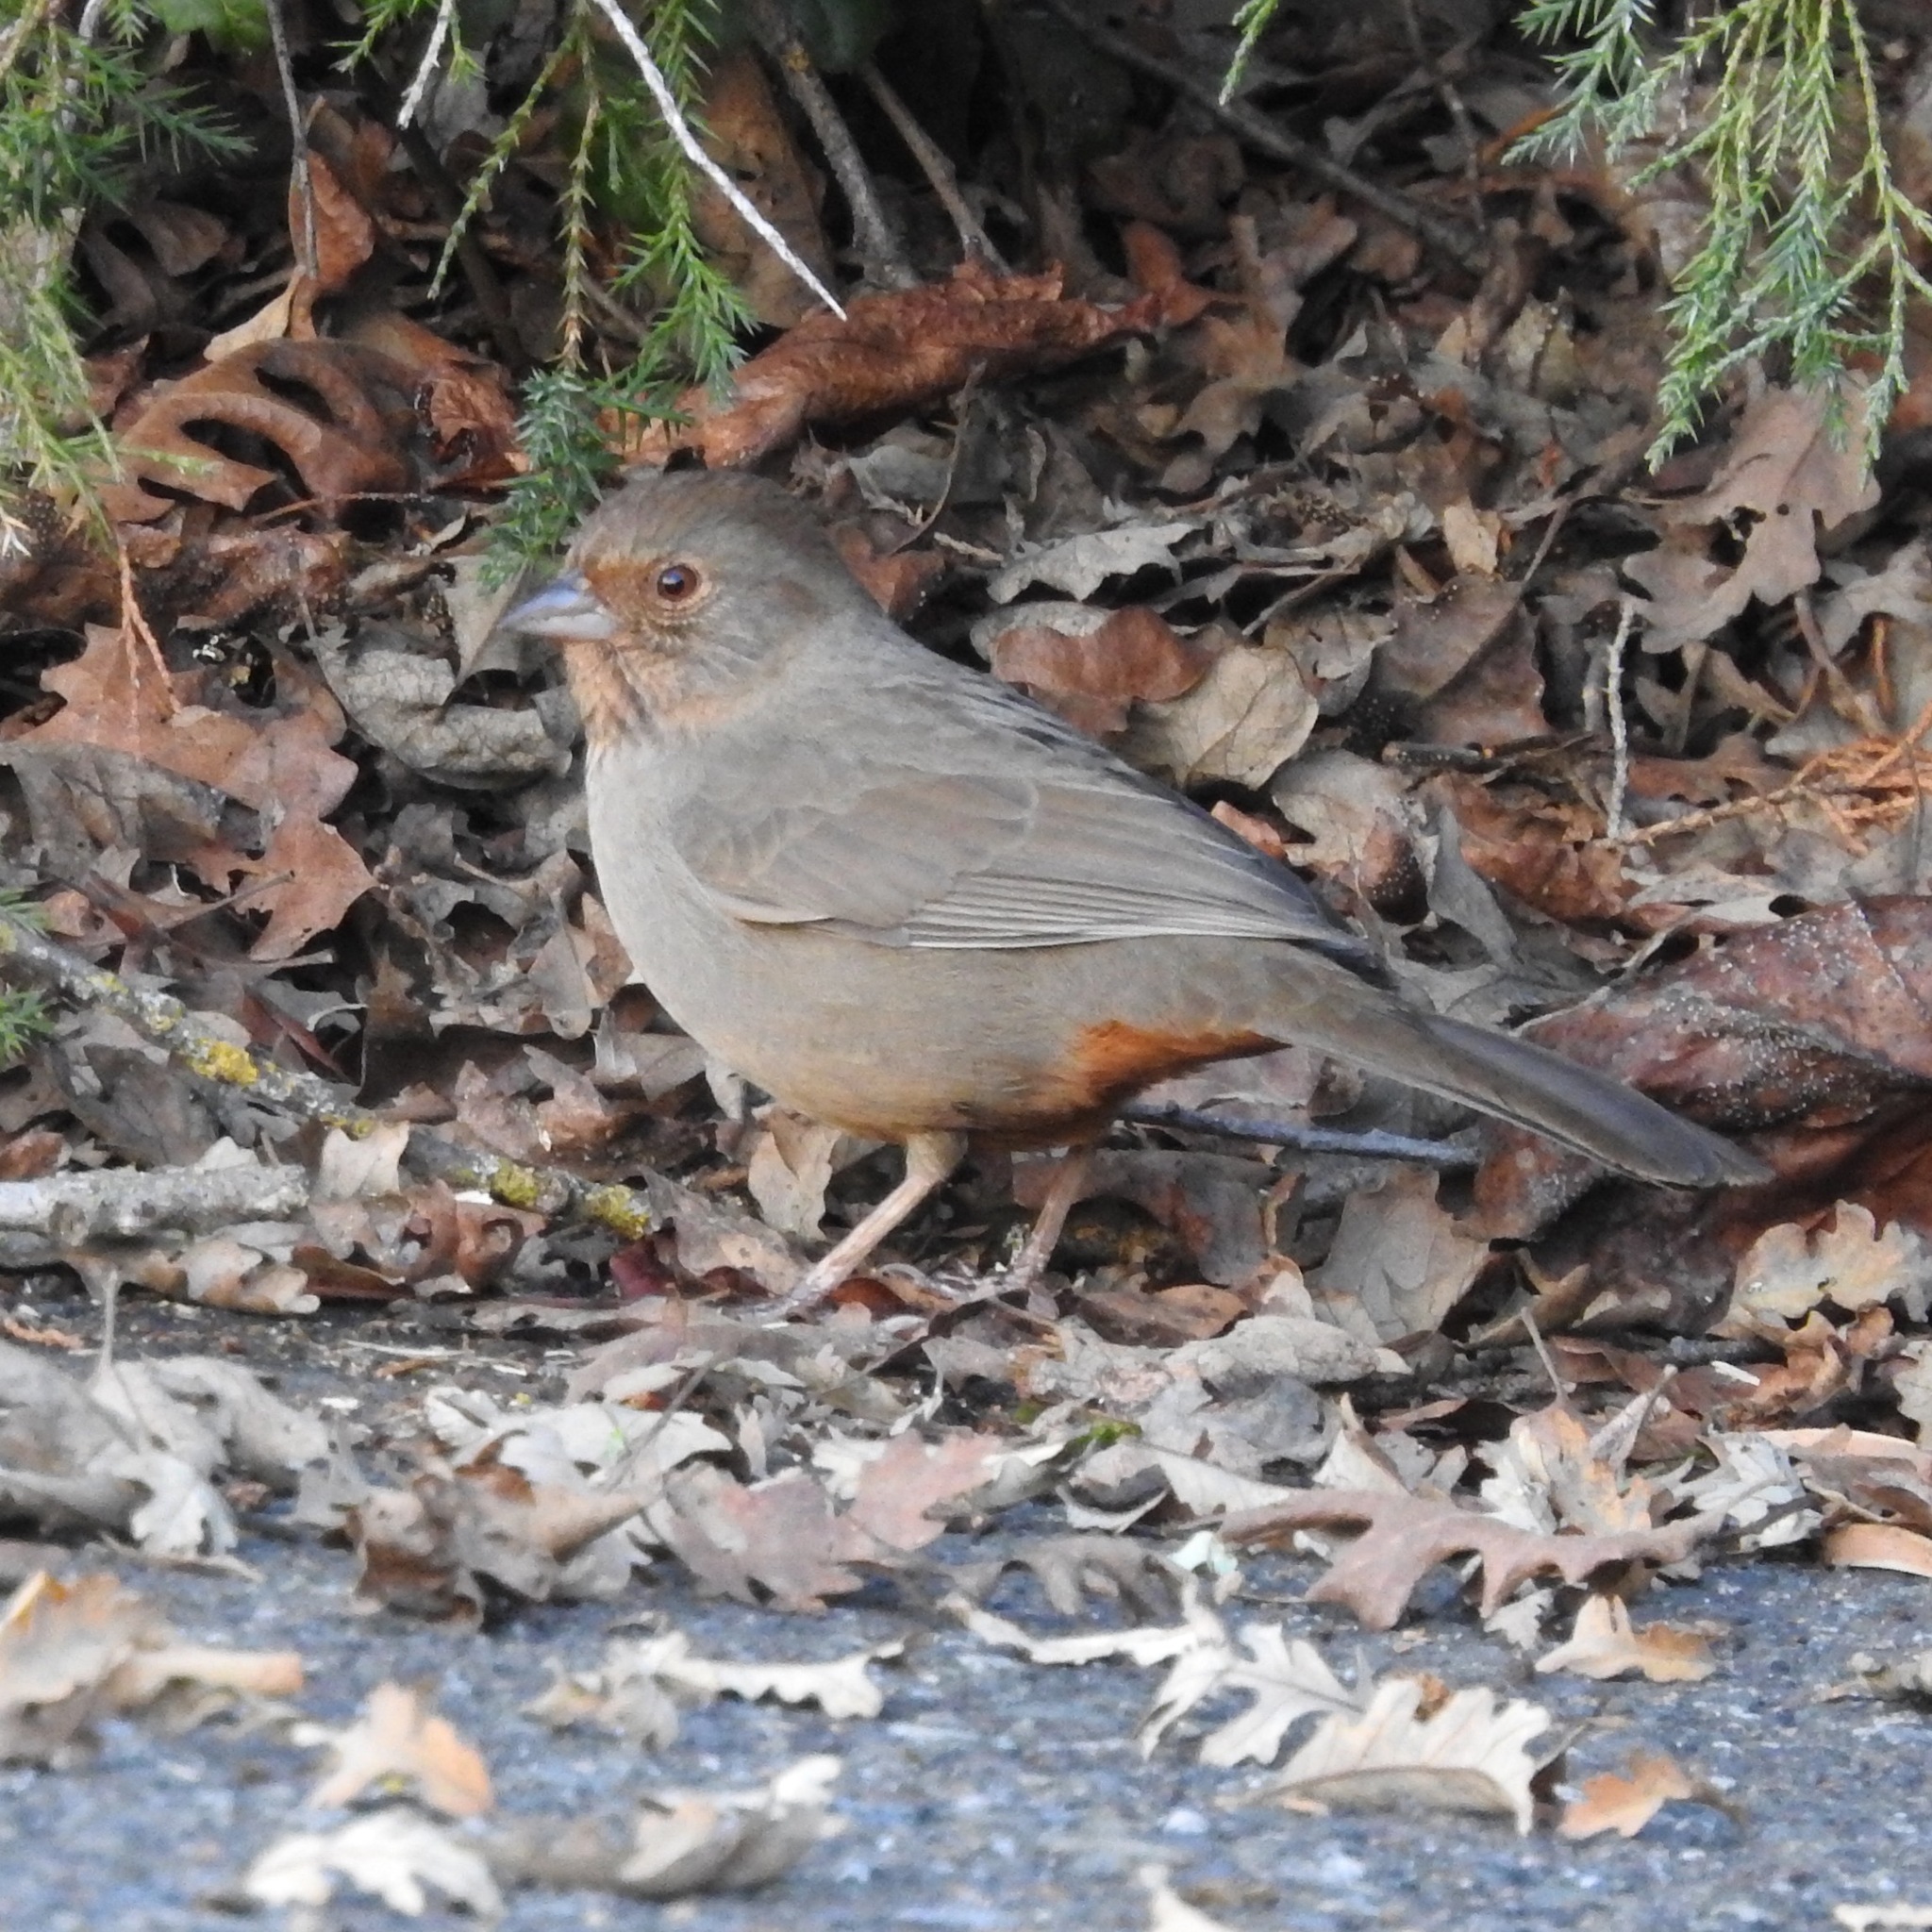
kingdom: Animalia
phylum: Chordata
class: Aves
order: Passeriformes
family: Passerellidae
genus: Melozone
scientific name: Melozone crissalis
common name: California towhee
